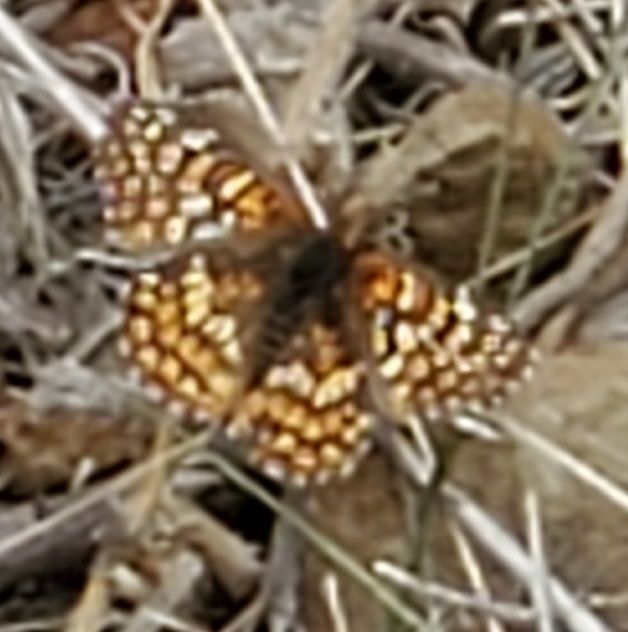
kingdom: Animalia
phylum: Arthropoda
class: Insecta
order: Lepidoptera
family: Nymphalidae
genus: Chlosyne
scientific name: Chlosyne gabbii
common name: Gabb's checkerspot
